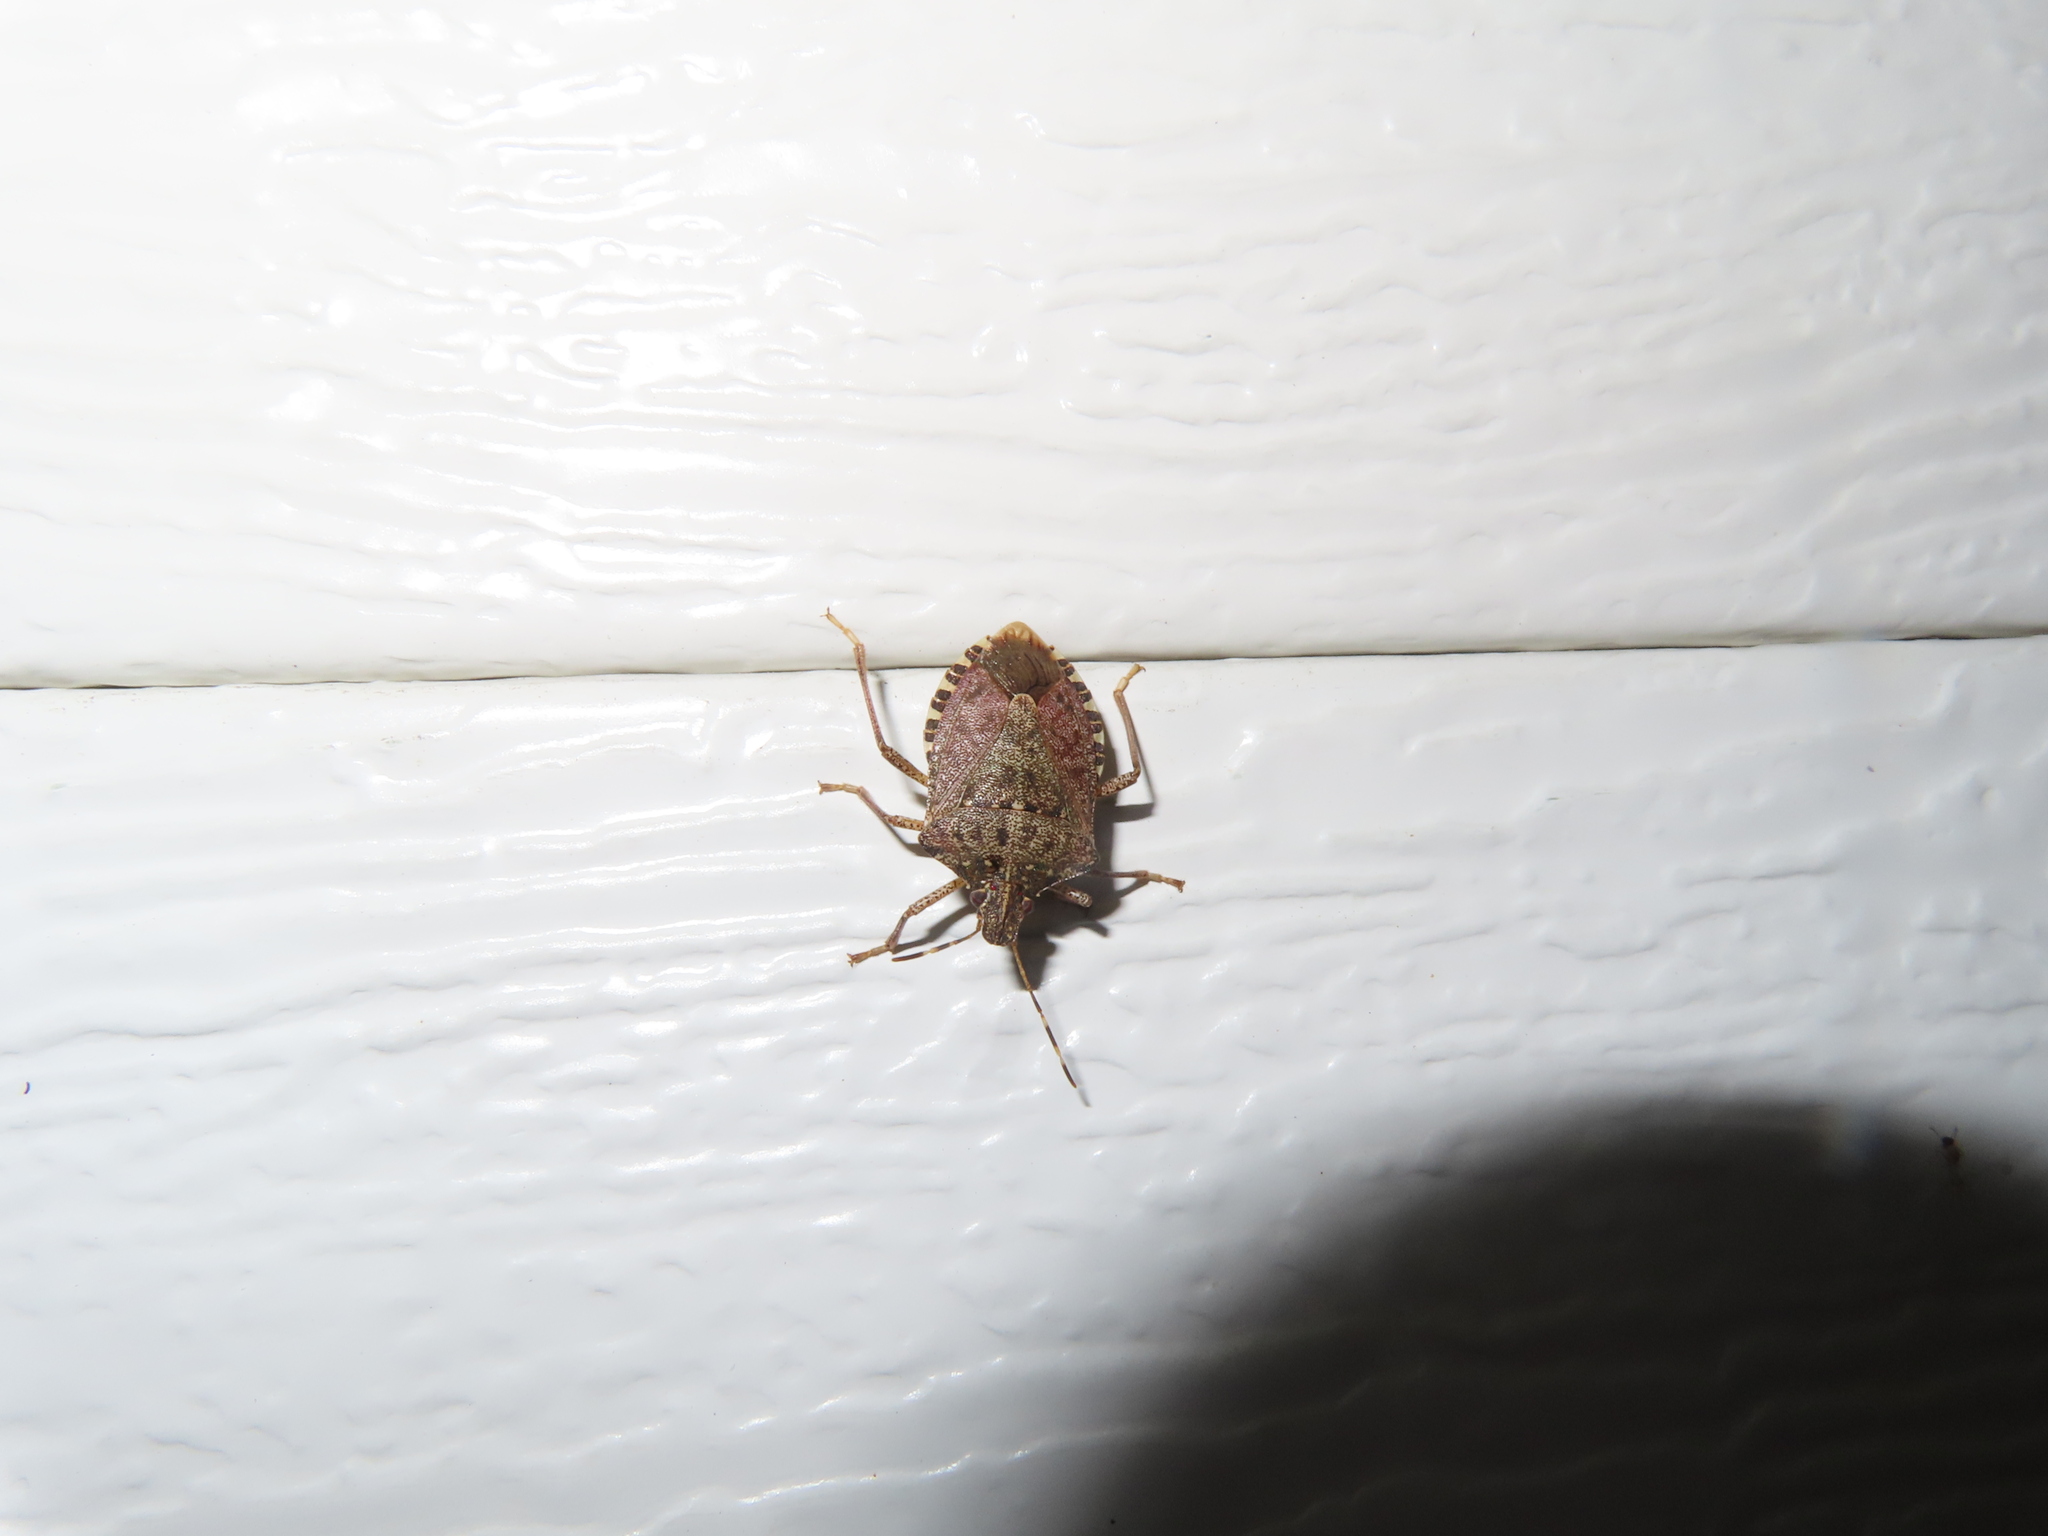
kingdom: Animalia
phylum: Arthropoda
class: Insecta
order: Hemiptera
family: Pentatomidae
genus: Halyomorpha
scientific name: Halyomorpha halys
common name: Brown marmorated stink bug
